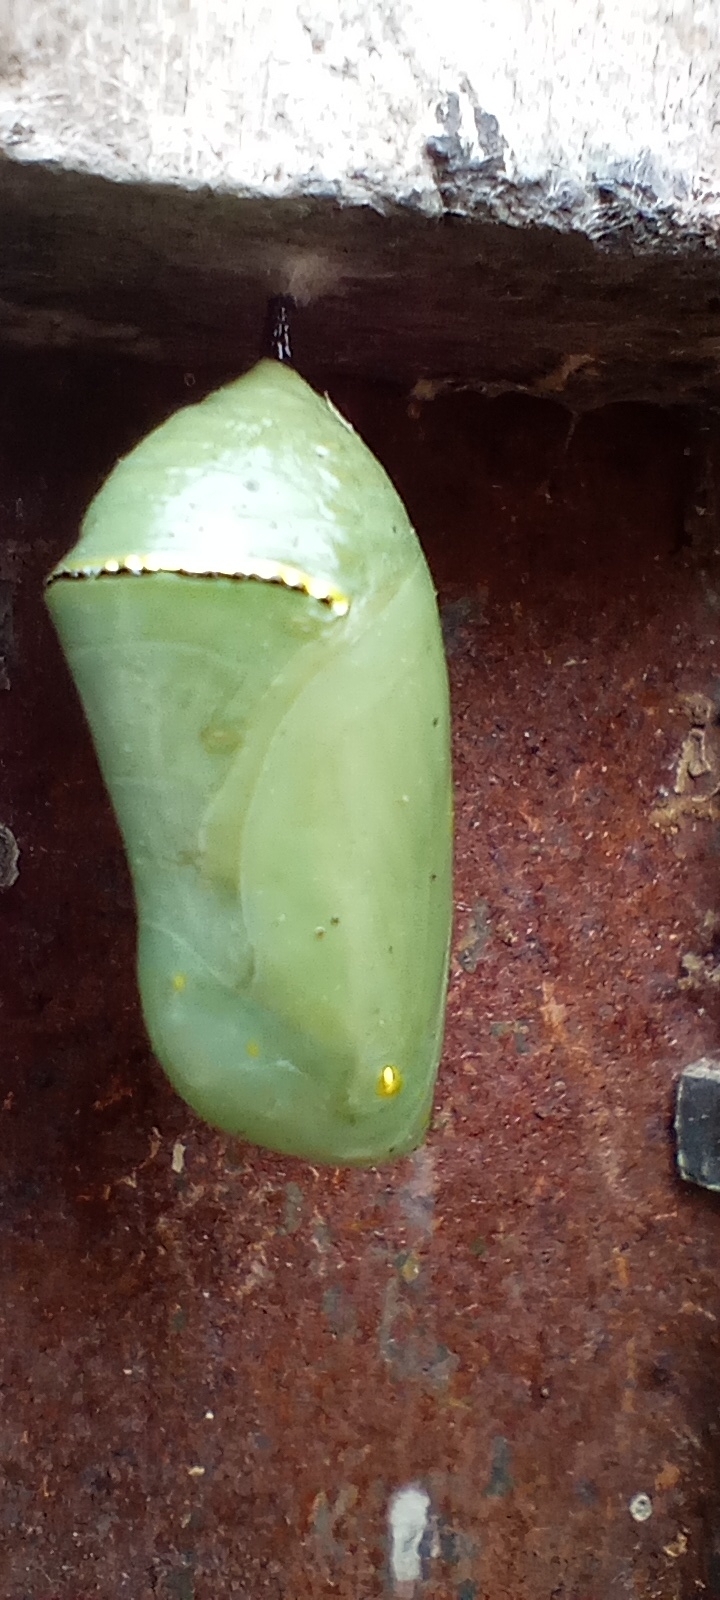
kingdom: Animalia
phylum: Arthropoda
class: Insecta
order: Lepidoptera
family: Nymphalidae
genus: Danaus
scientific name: Danaus erippus
